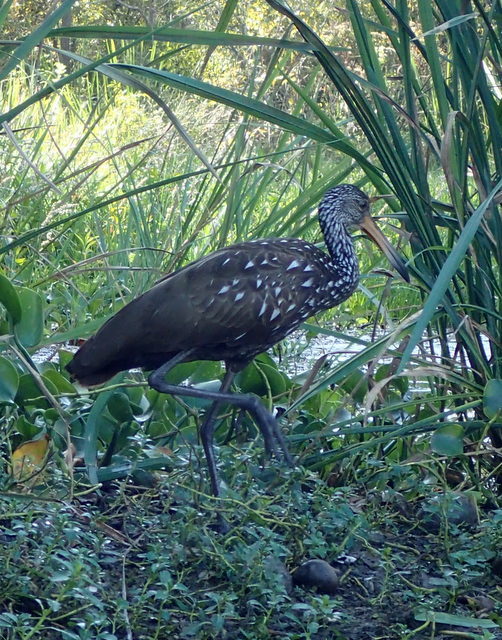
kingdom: Animalia
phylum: Chordata
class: Aves
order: Gruiformes
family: Aramidae
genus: Aramus
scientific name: Aramus guarauna
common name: Limpkin
